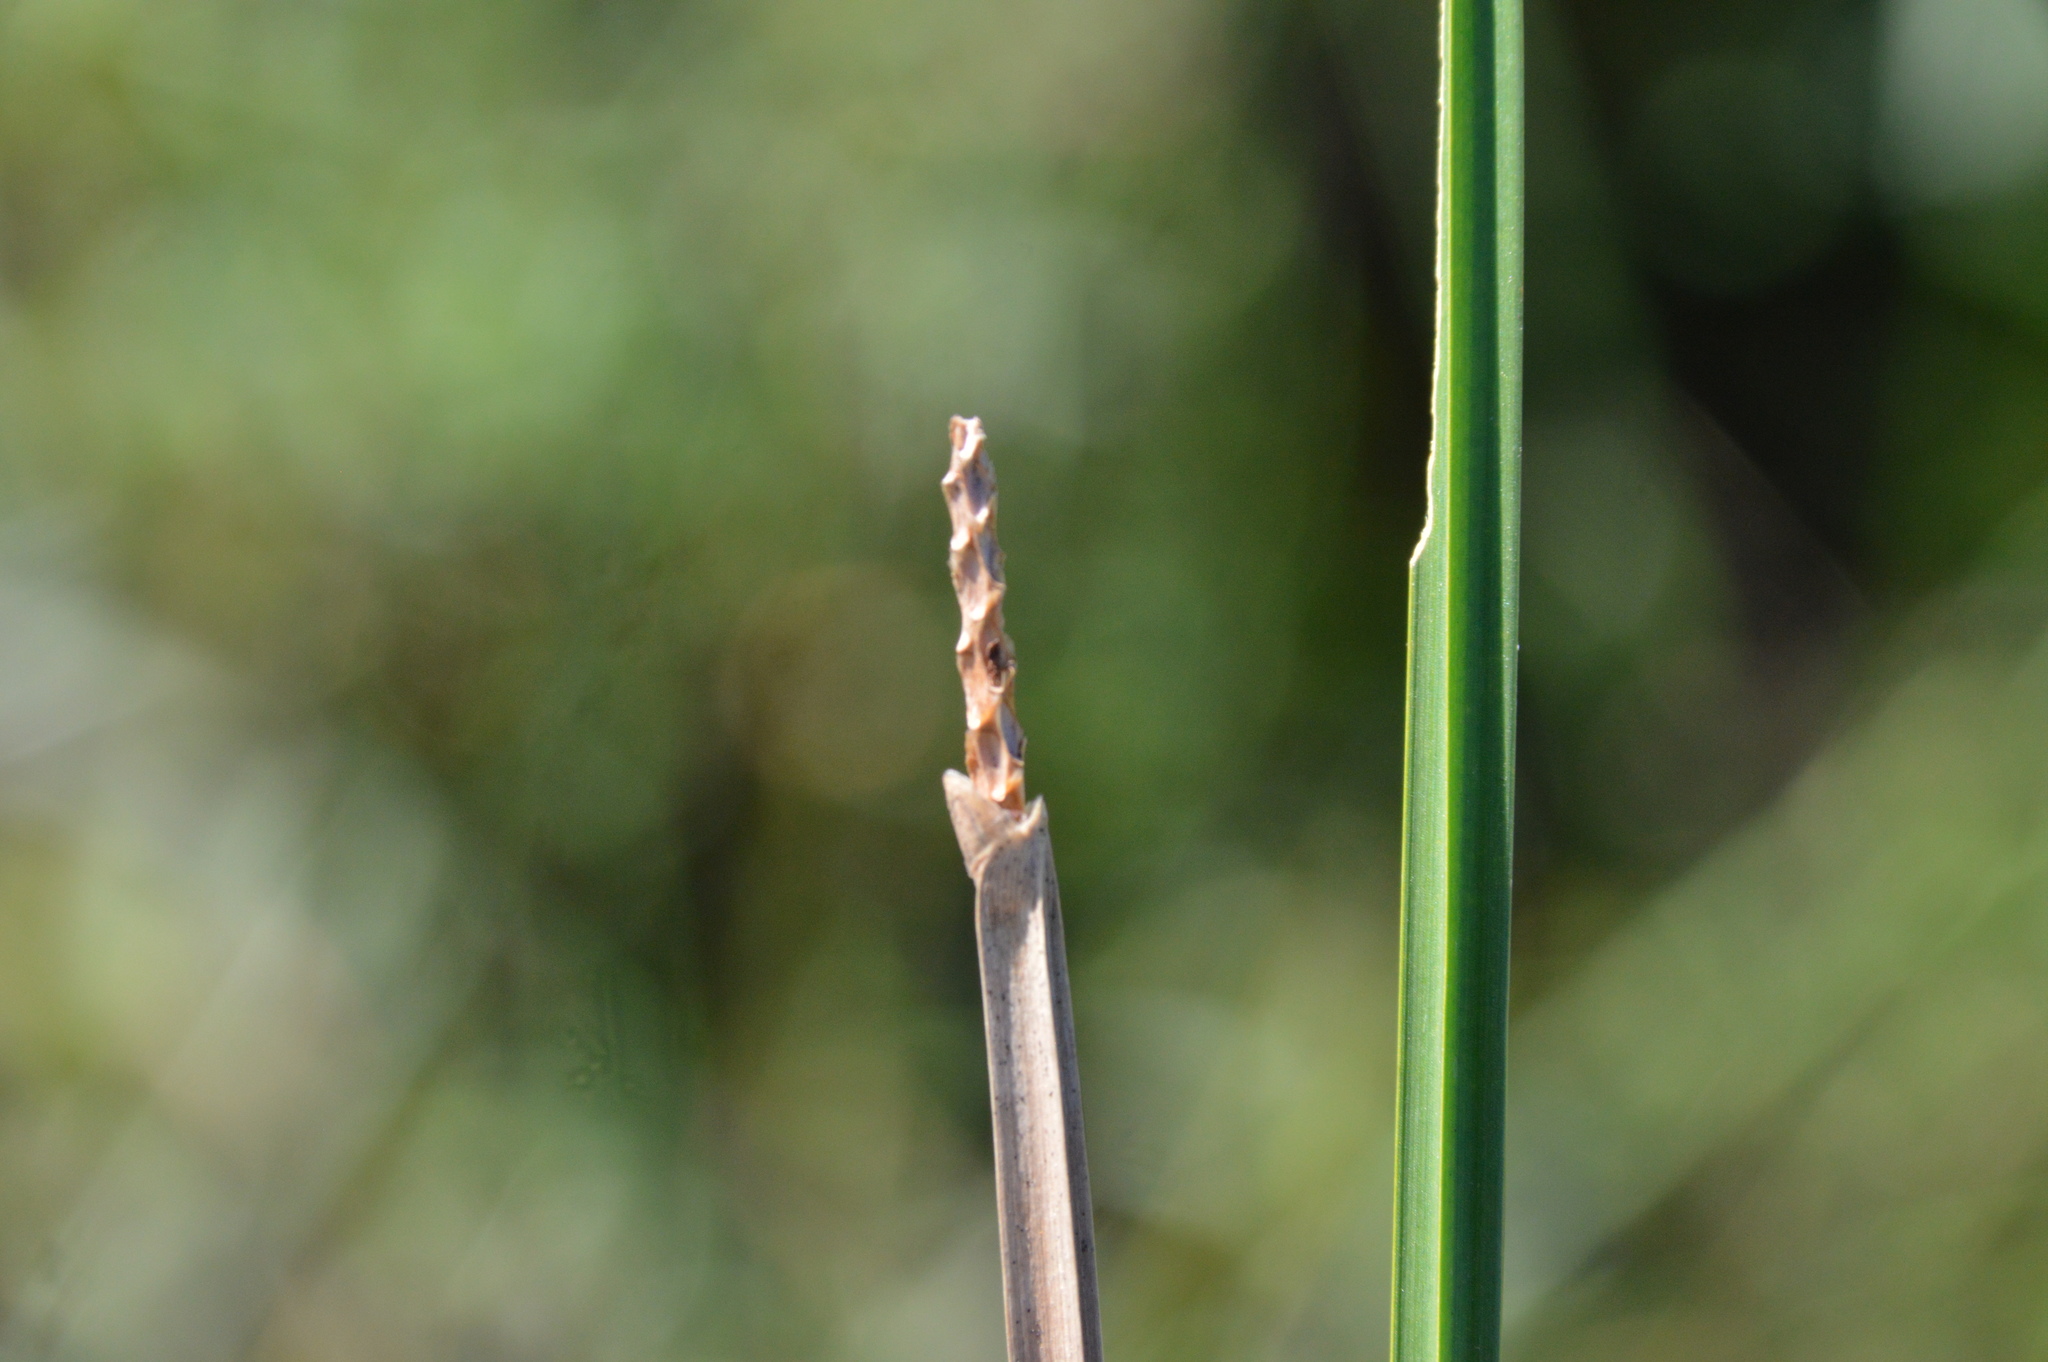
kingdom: Plantae
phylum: Tracheophyta
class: Liliopsida
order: Poales
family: Cyperaceae
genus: Eleocharis
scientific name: Eleocharis quadrangulata
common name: Square-stem spike-rush
